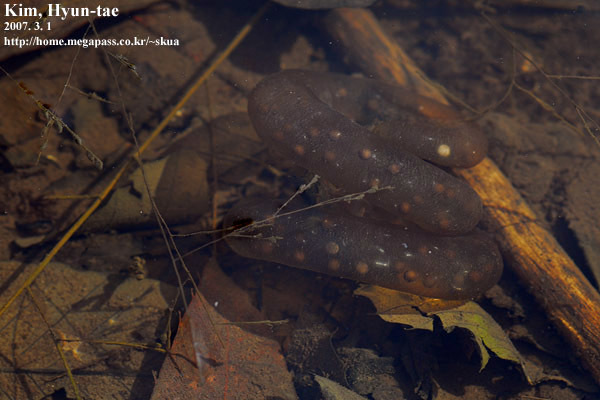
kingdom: Animalia
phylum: Chordata
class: Amphibia
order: Caudata
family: Hynobiidae
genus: Hynobius
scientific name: Hynobius leechii
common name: Gensan salamander
